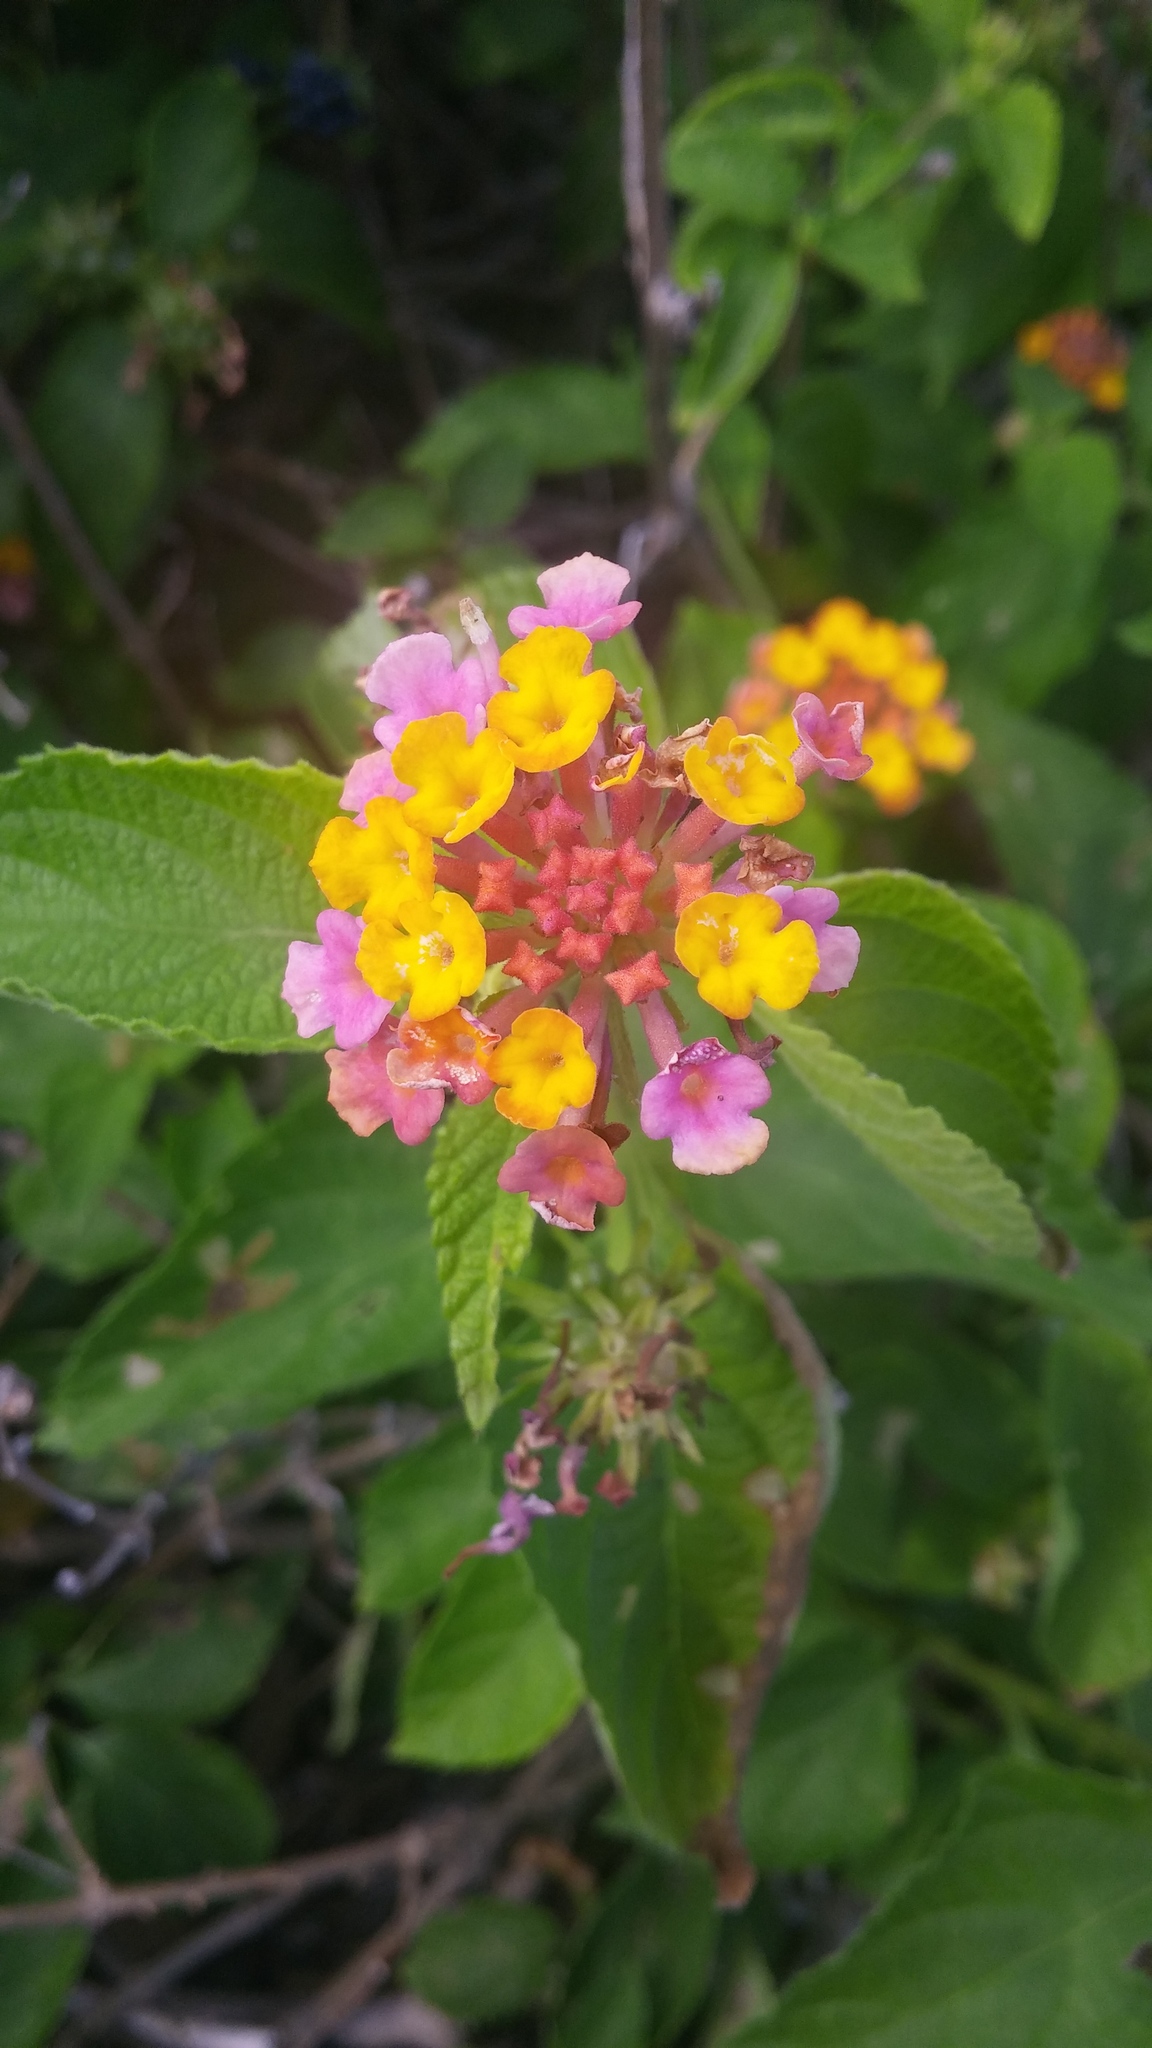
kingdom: Plantae
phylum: Tracheophyta
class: Magnoliopsida
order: Lamiales
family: Verbenaceae
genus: Lantana
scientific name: Lantana camara
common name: Lantana
